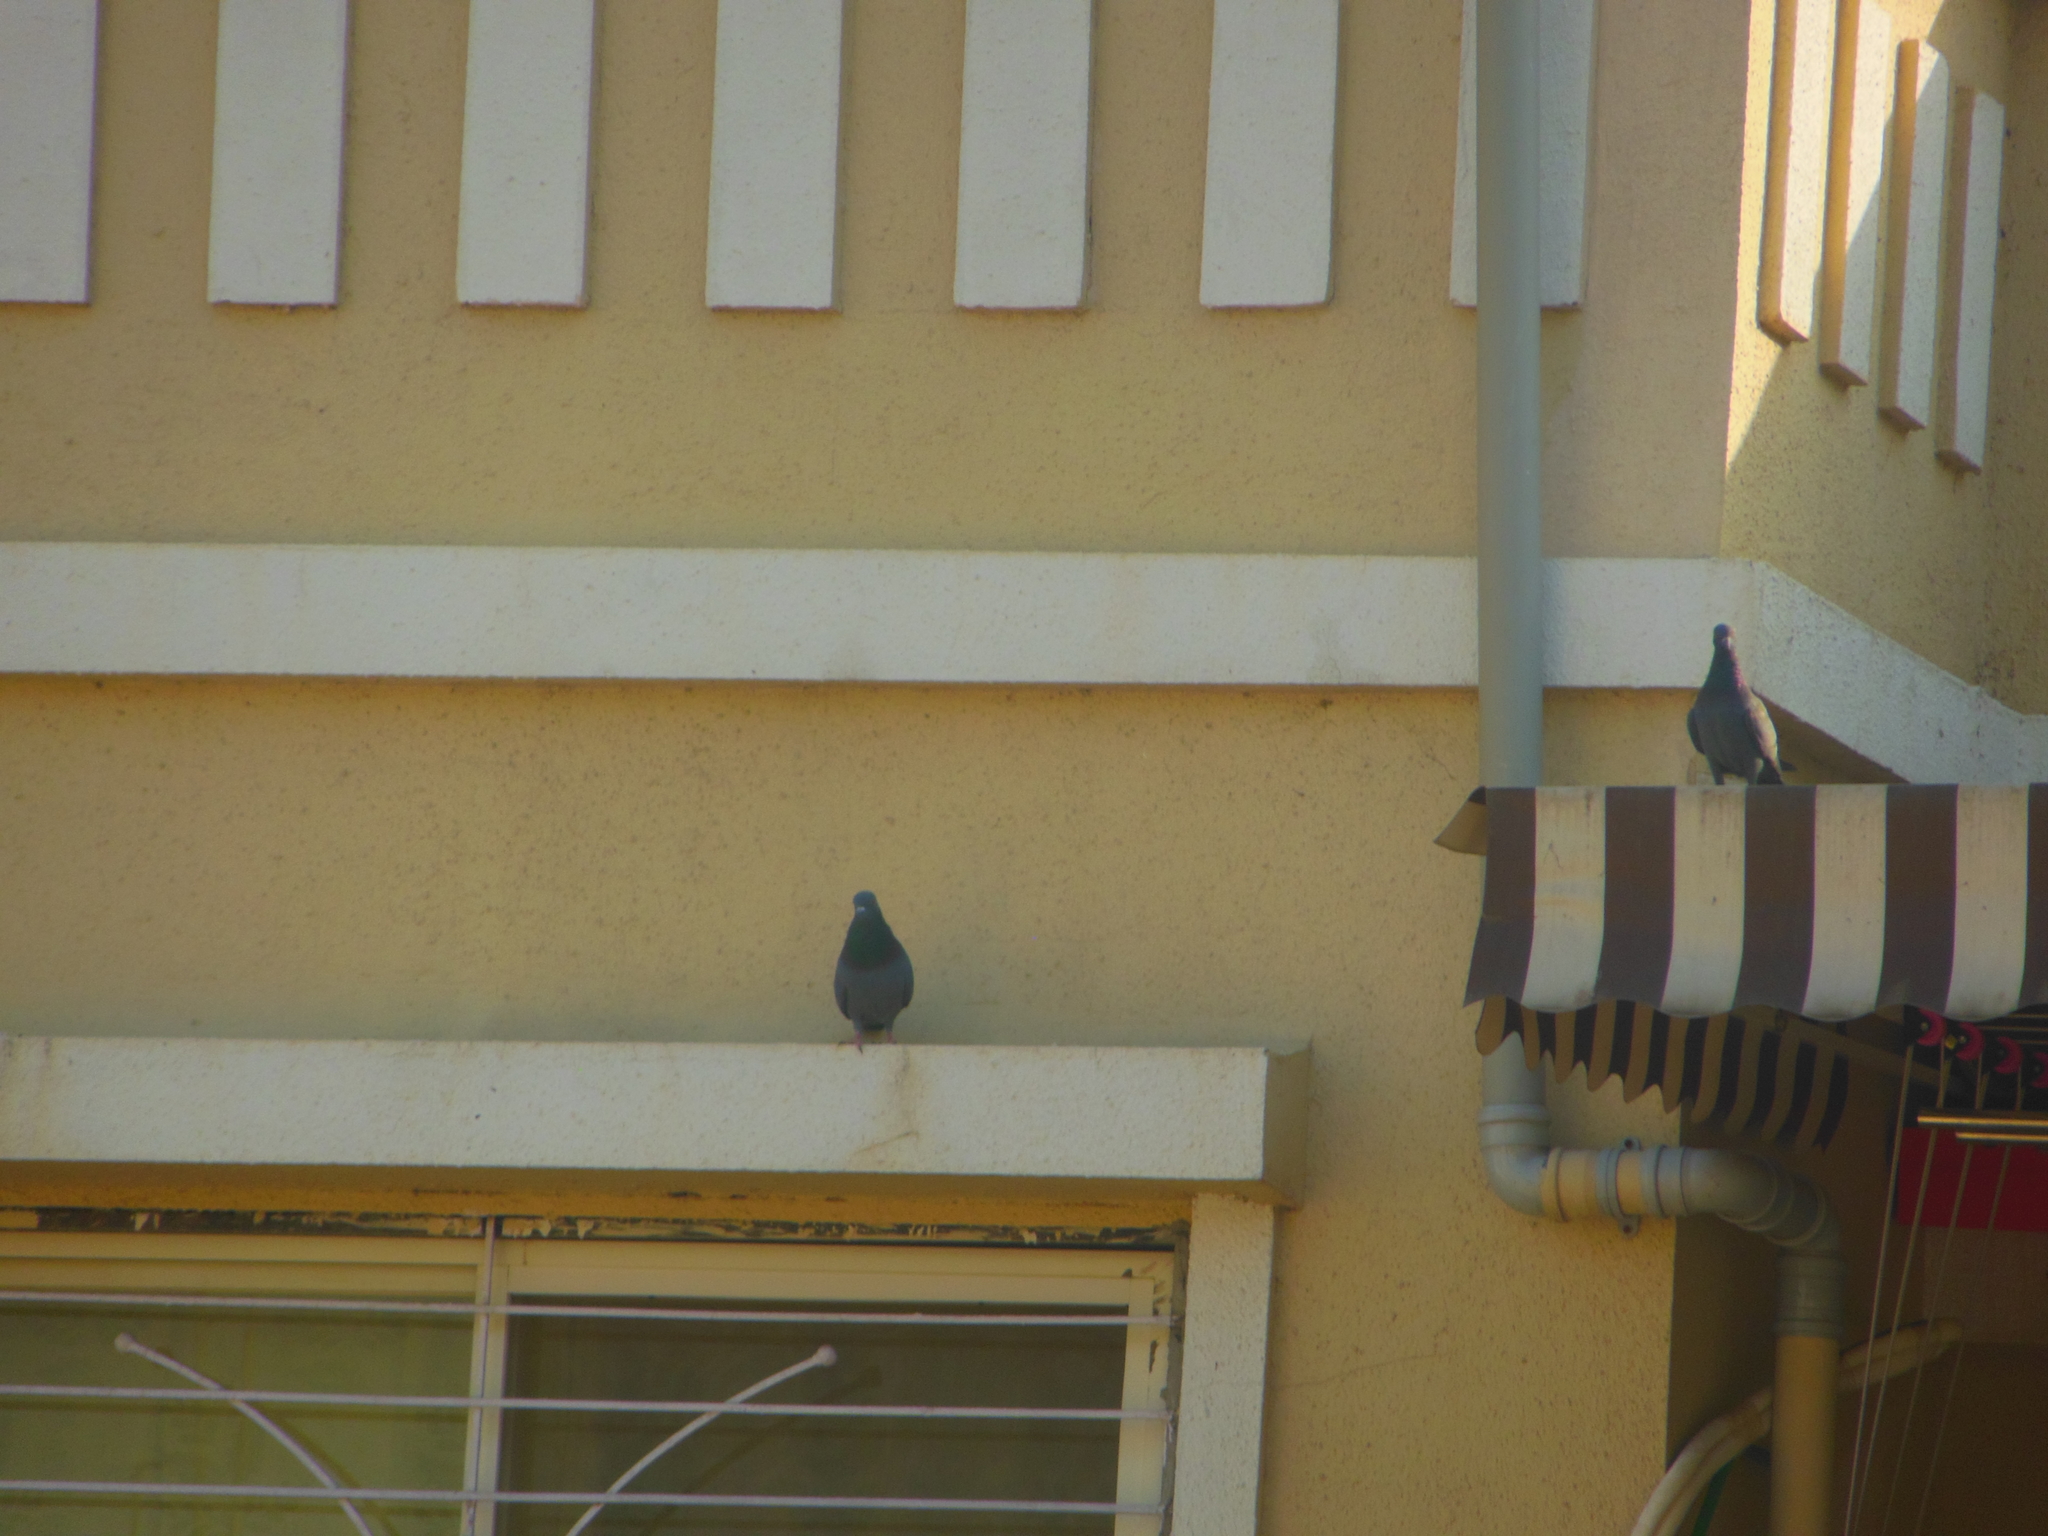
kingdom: Animalia
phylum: Chordata
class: Aves
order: Columbiformes
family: Columbidae
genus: Columba
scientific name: Columba livia
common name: Rock pigeon
